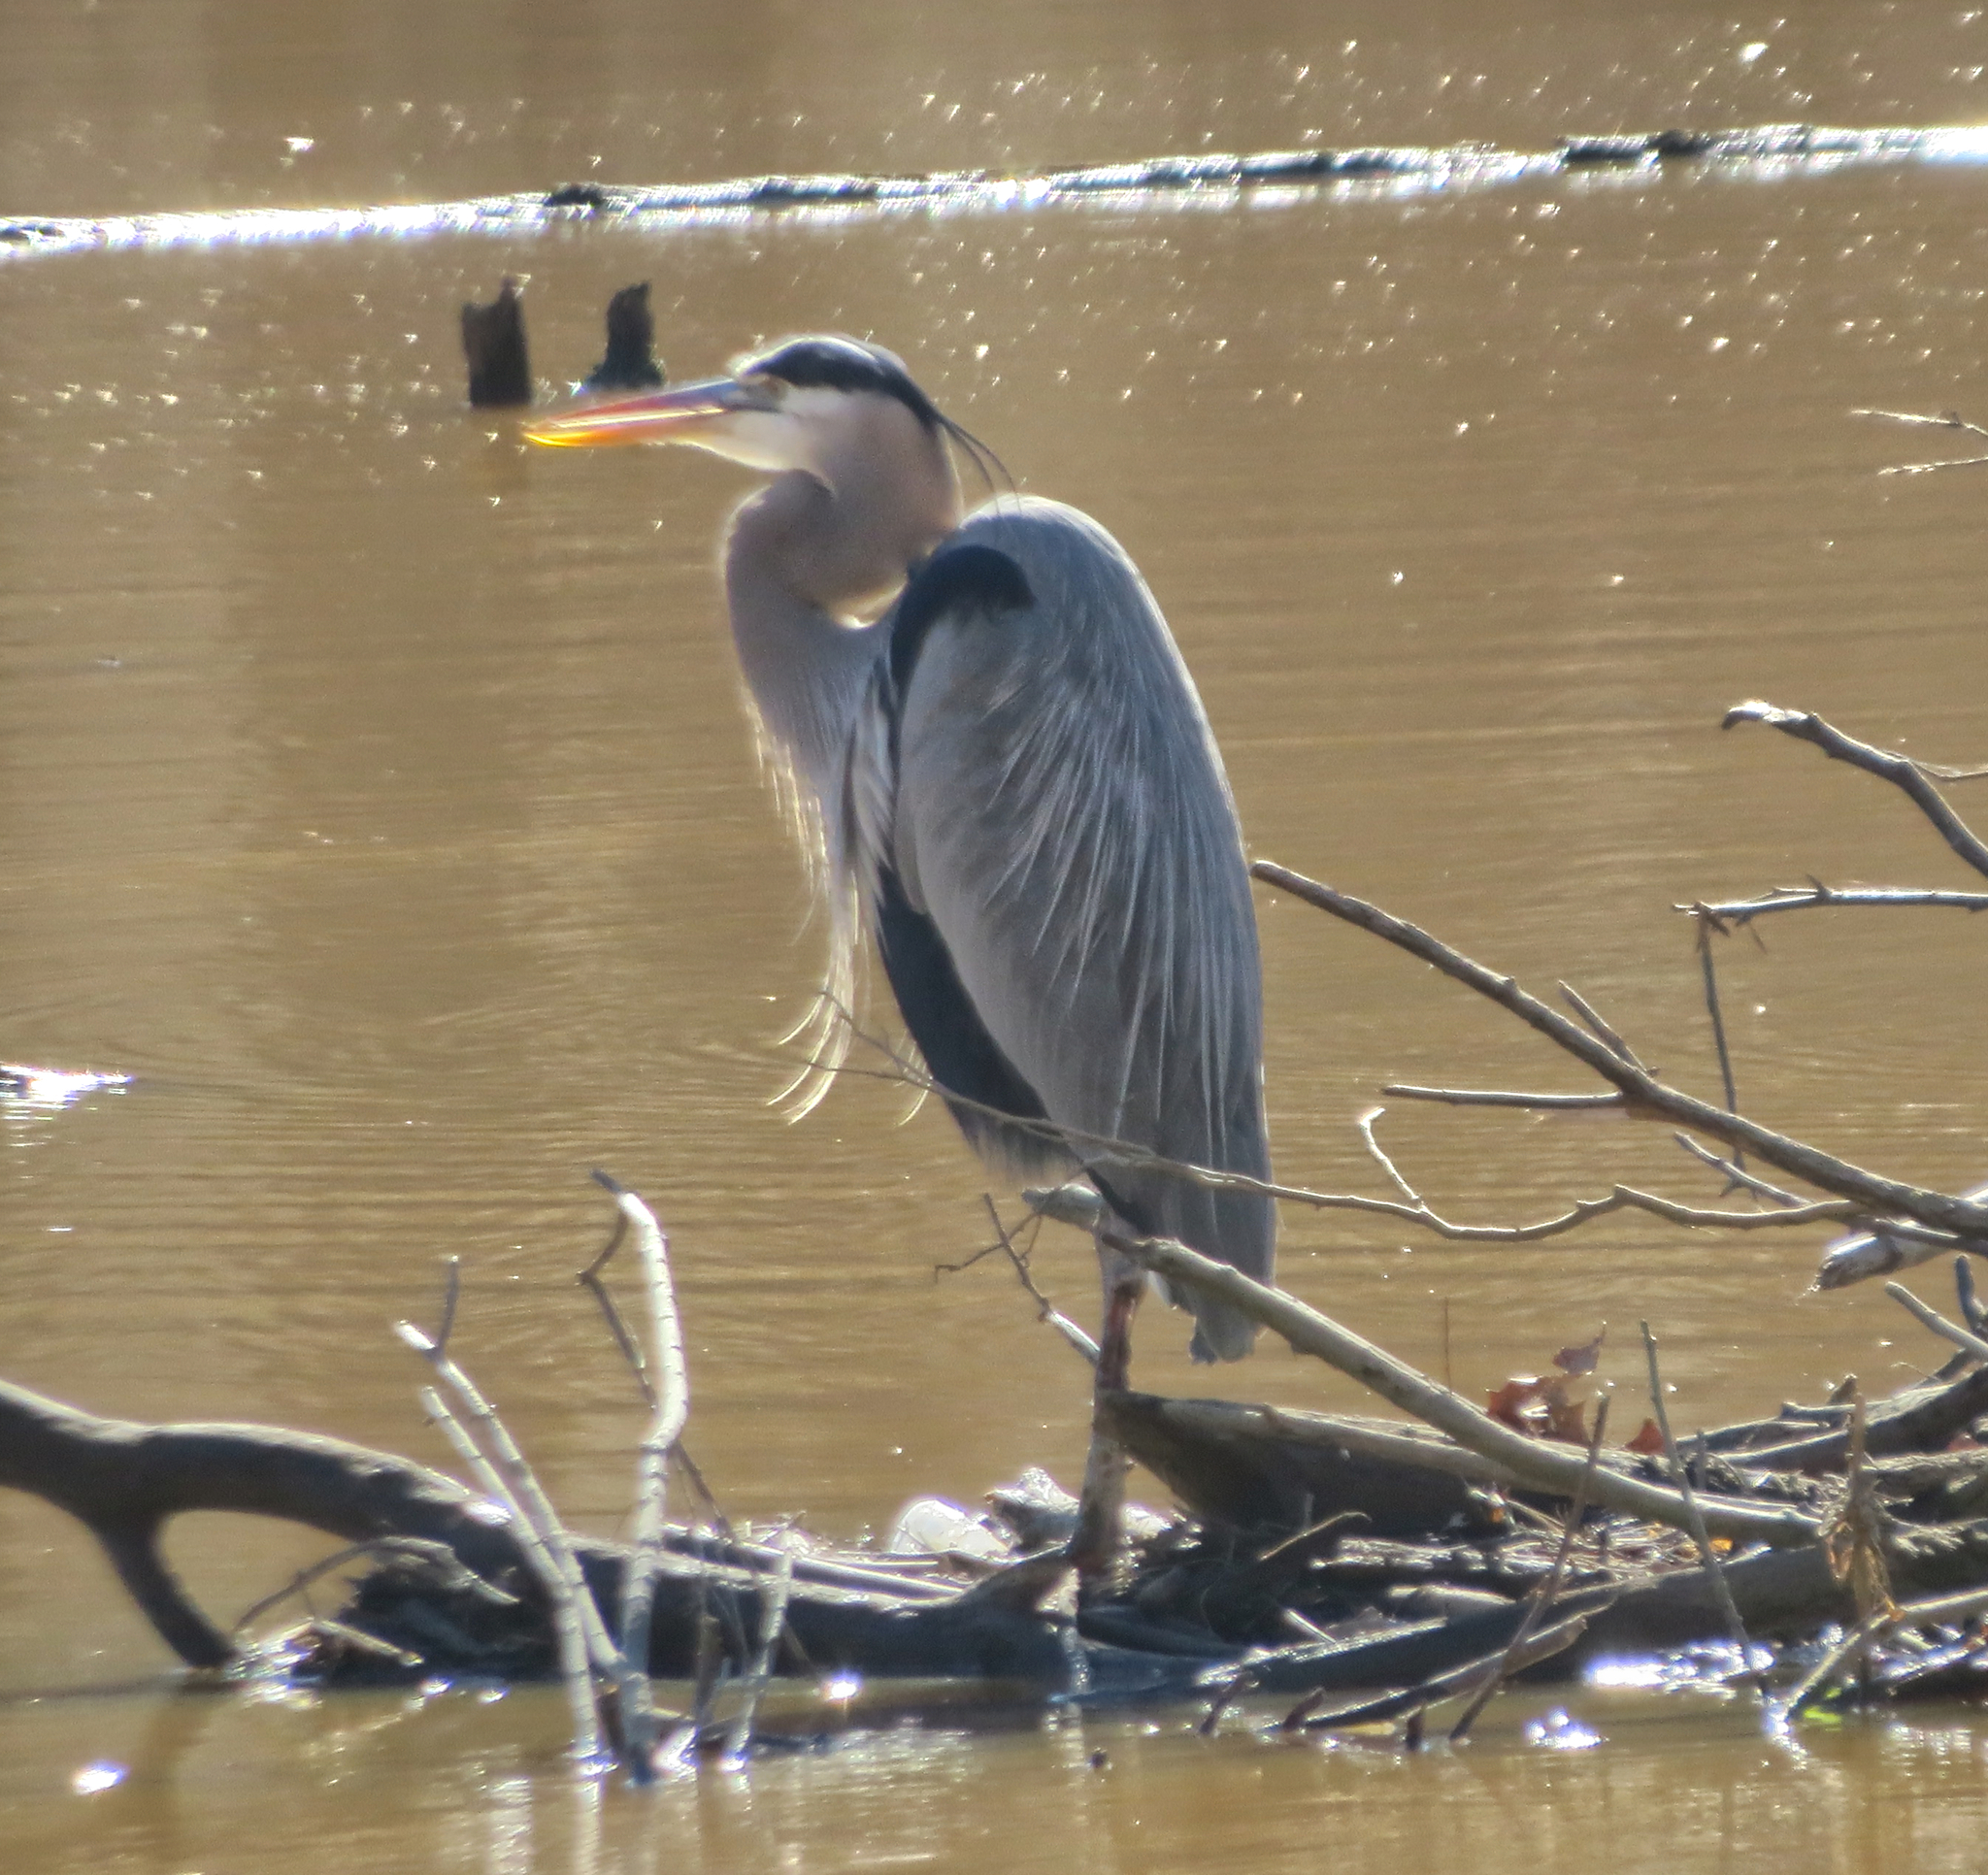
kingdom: Animalia
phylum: Chordata
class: Aves
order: Pelecaniformes
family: Ardeidae
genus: Ardea
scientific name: Ardea herodias
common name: Great blue heron
